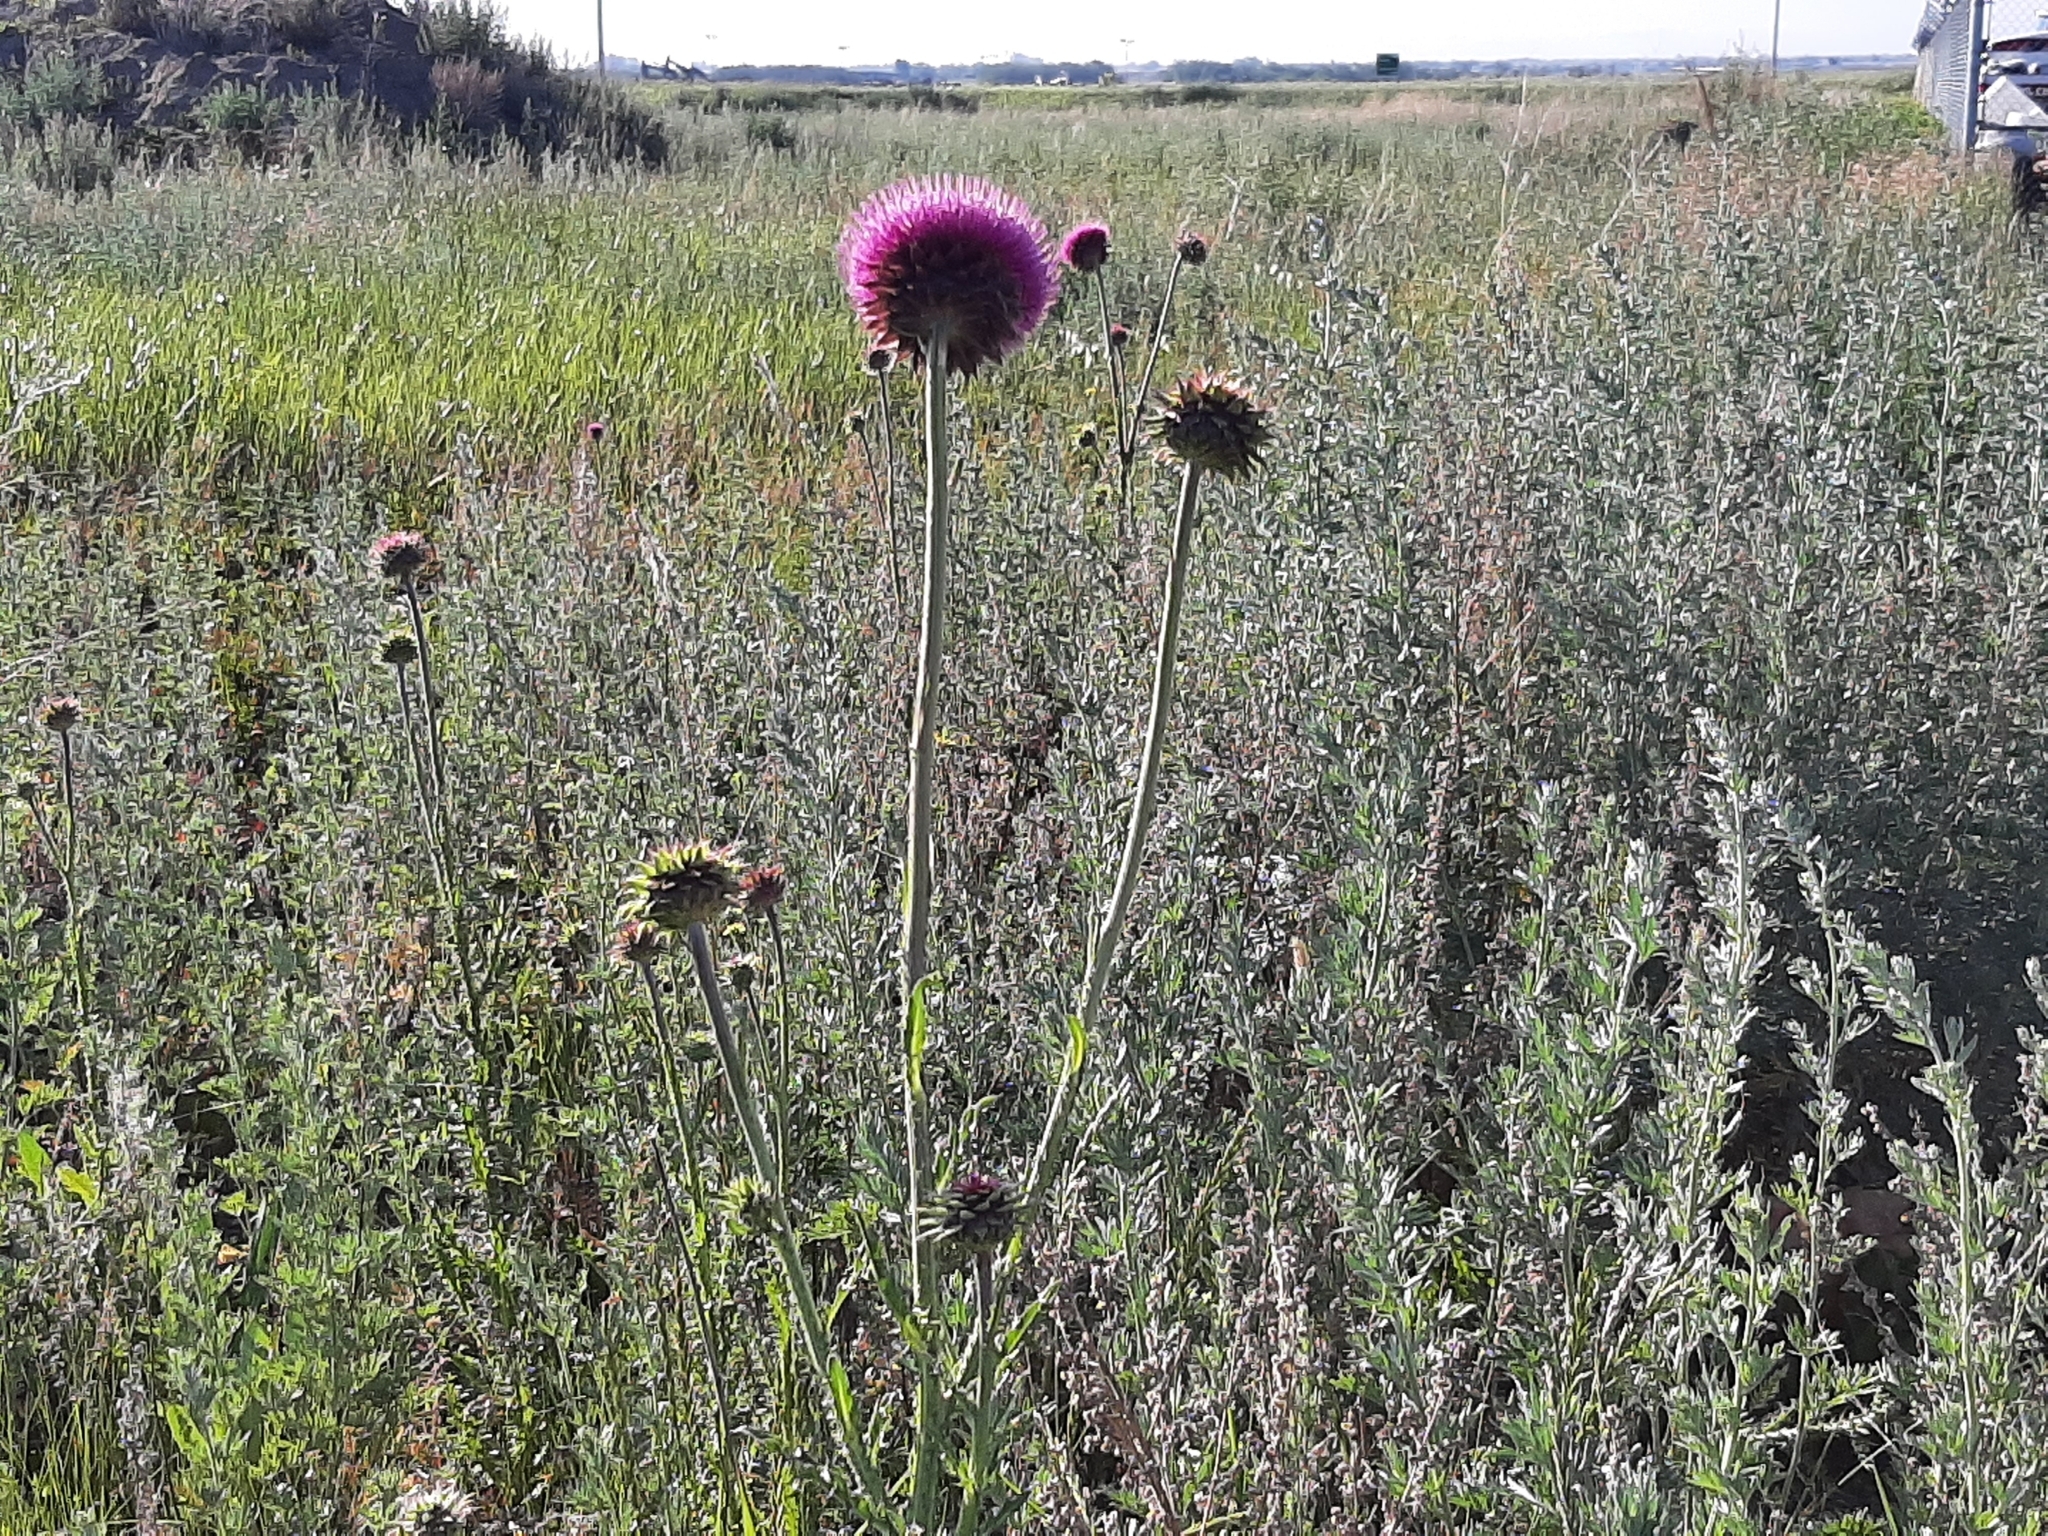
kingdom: Plantae
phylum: Tracheophyta
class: Magnoliopsida
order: Asterales
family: Asteraceae
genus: Carduus
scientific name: Carduus nutans
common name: Musk thistle
